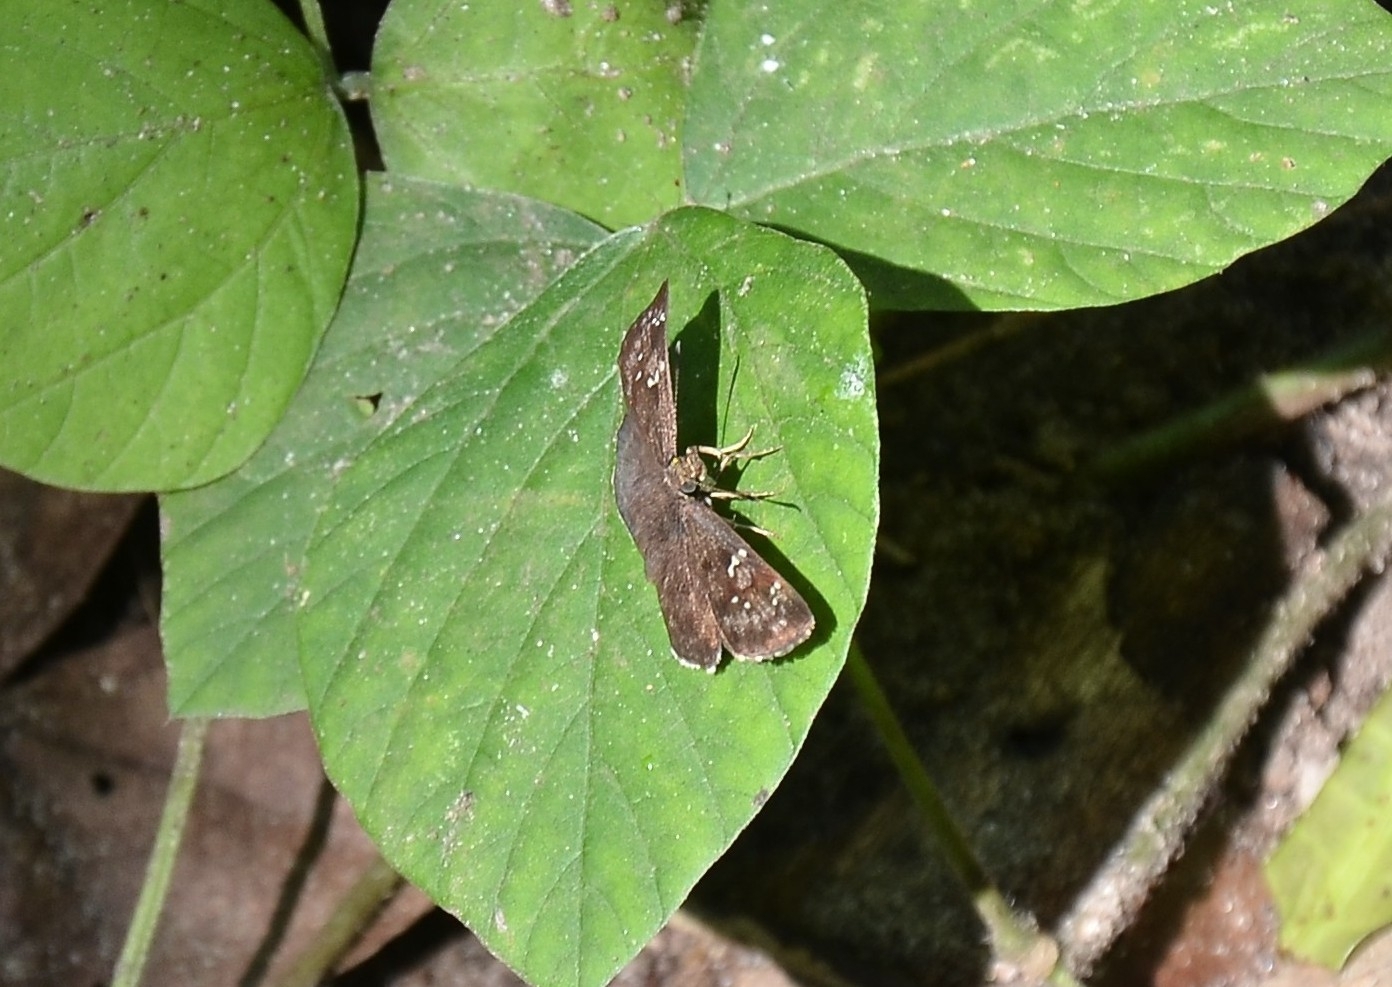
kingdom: Animalia
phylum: Arthropoda
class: Insecta
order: Lepidoptera
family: Hesperiidae
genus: Sarangesa
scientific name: Sarangesa dasahara
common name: Common small flat
